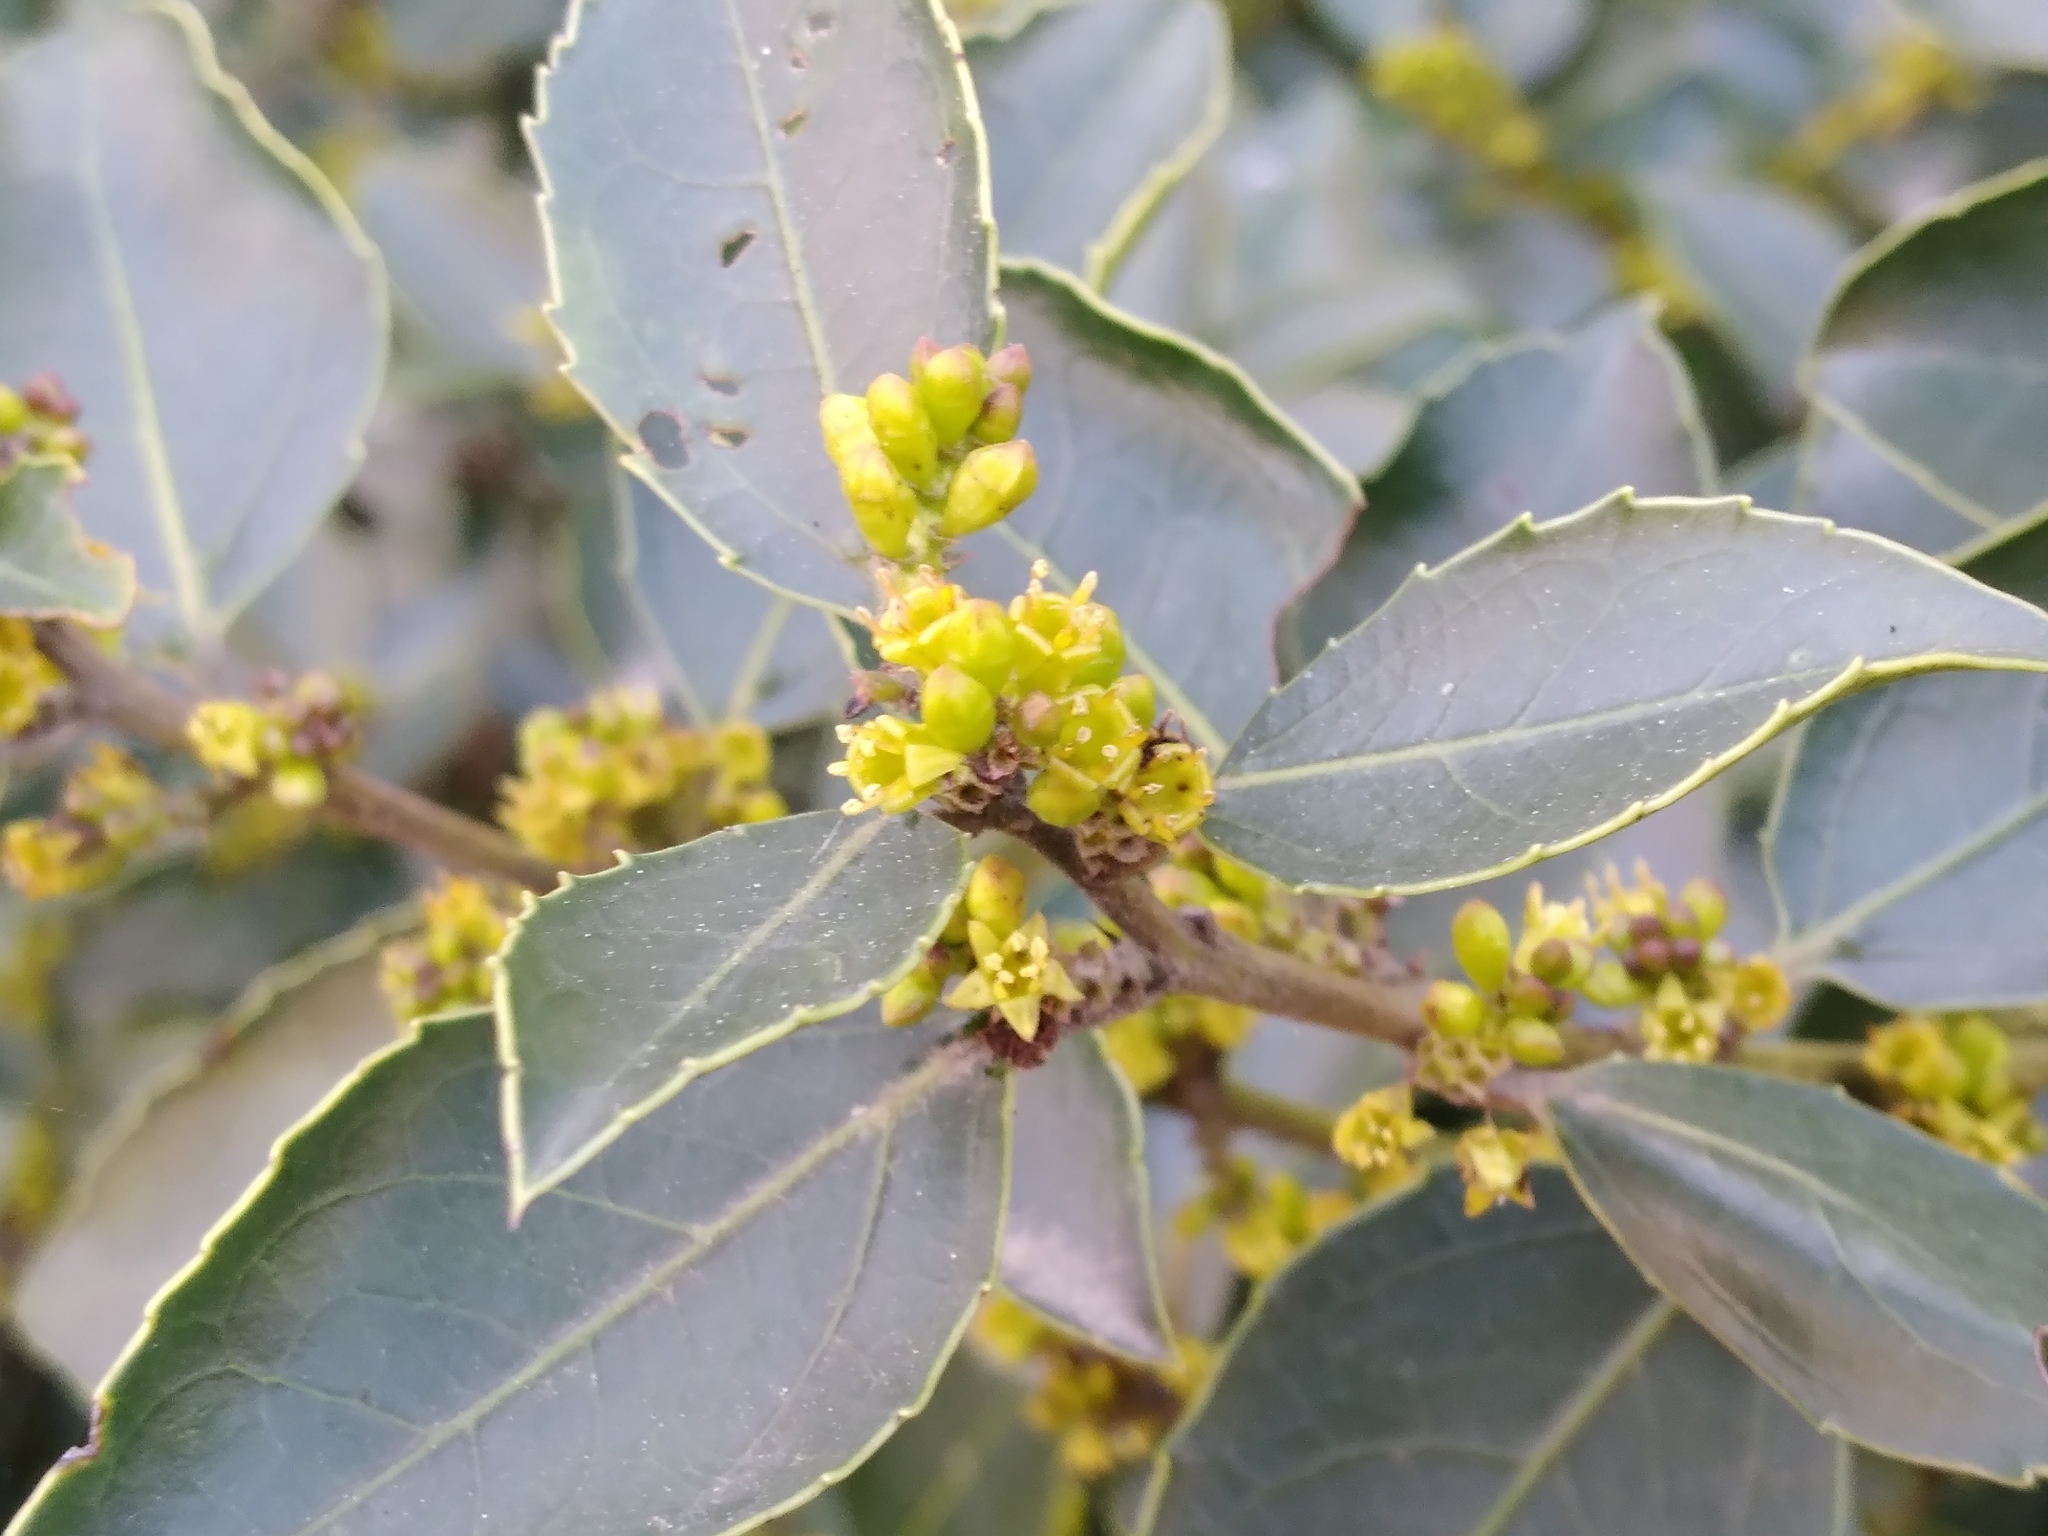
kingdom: Plantae
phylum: Tracheophyta
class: Magnoliopsida
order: Rosales
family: Rhamnaceae
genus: Rhamnus
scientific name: Rhamnus alaternus
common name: Mediterranean buckthorn
